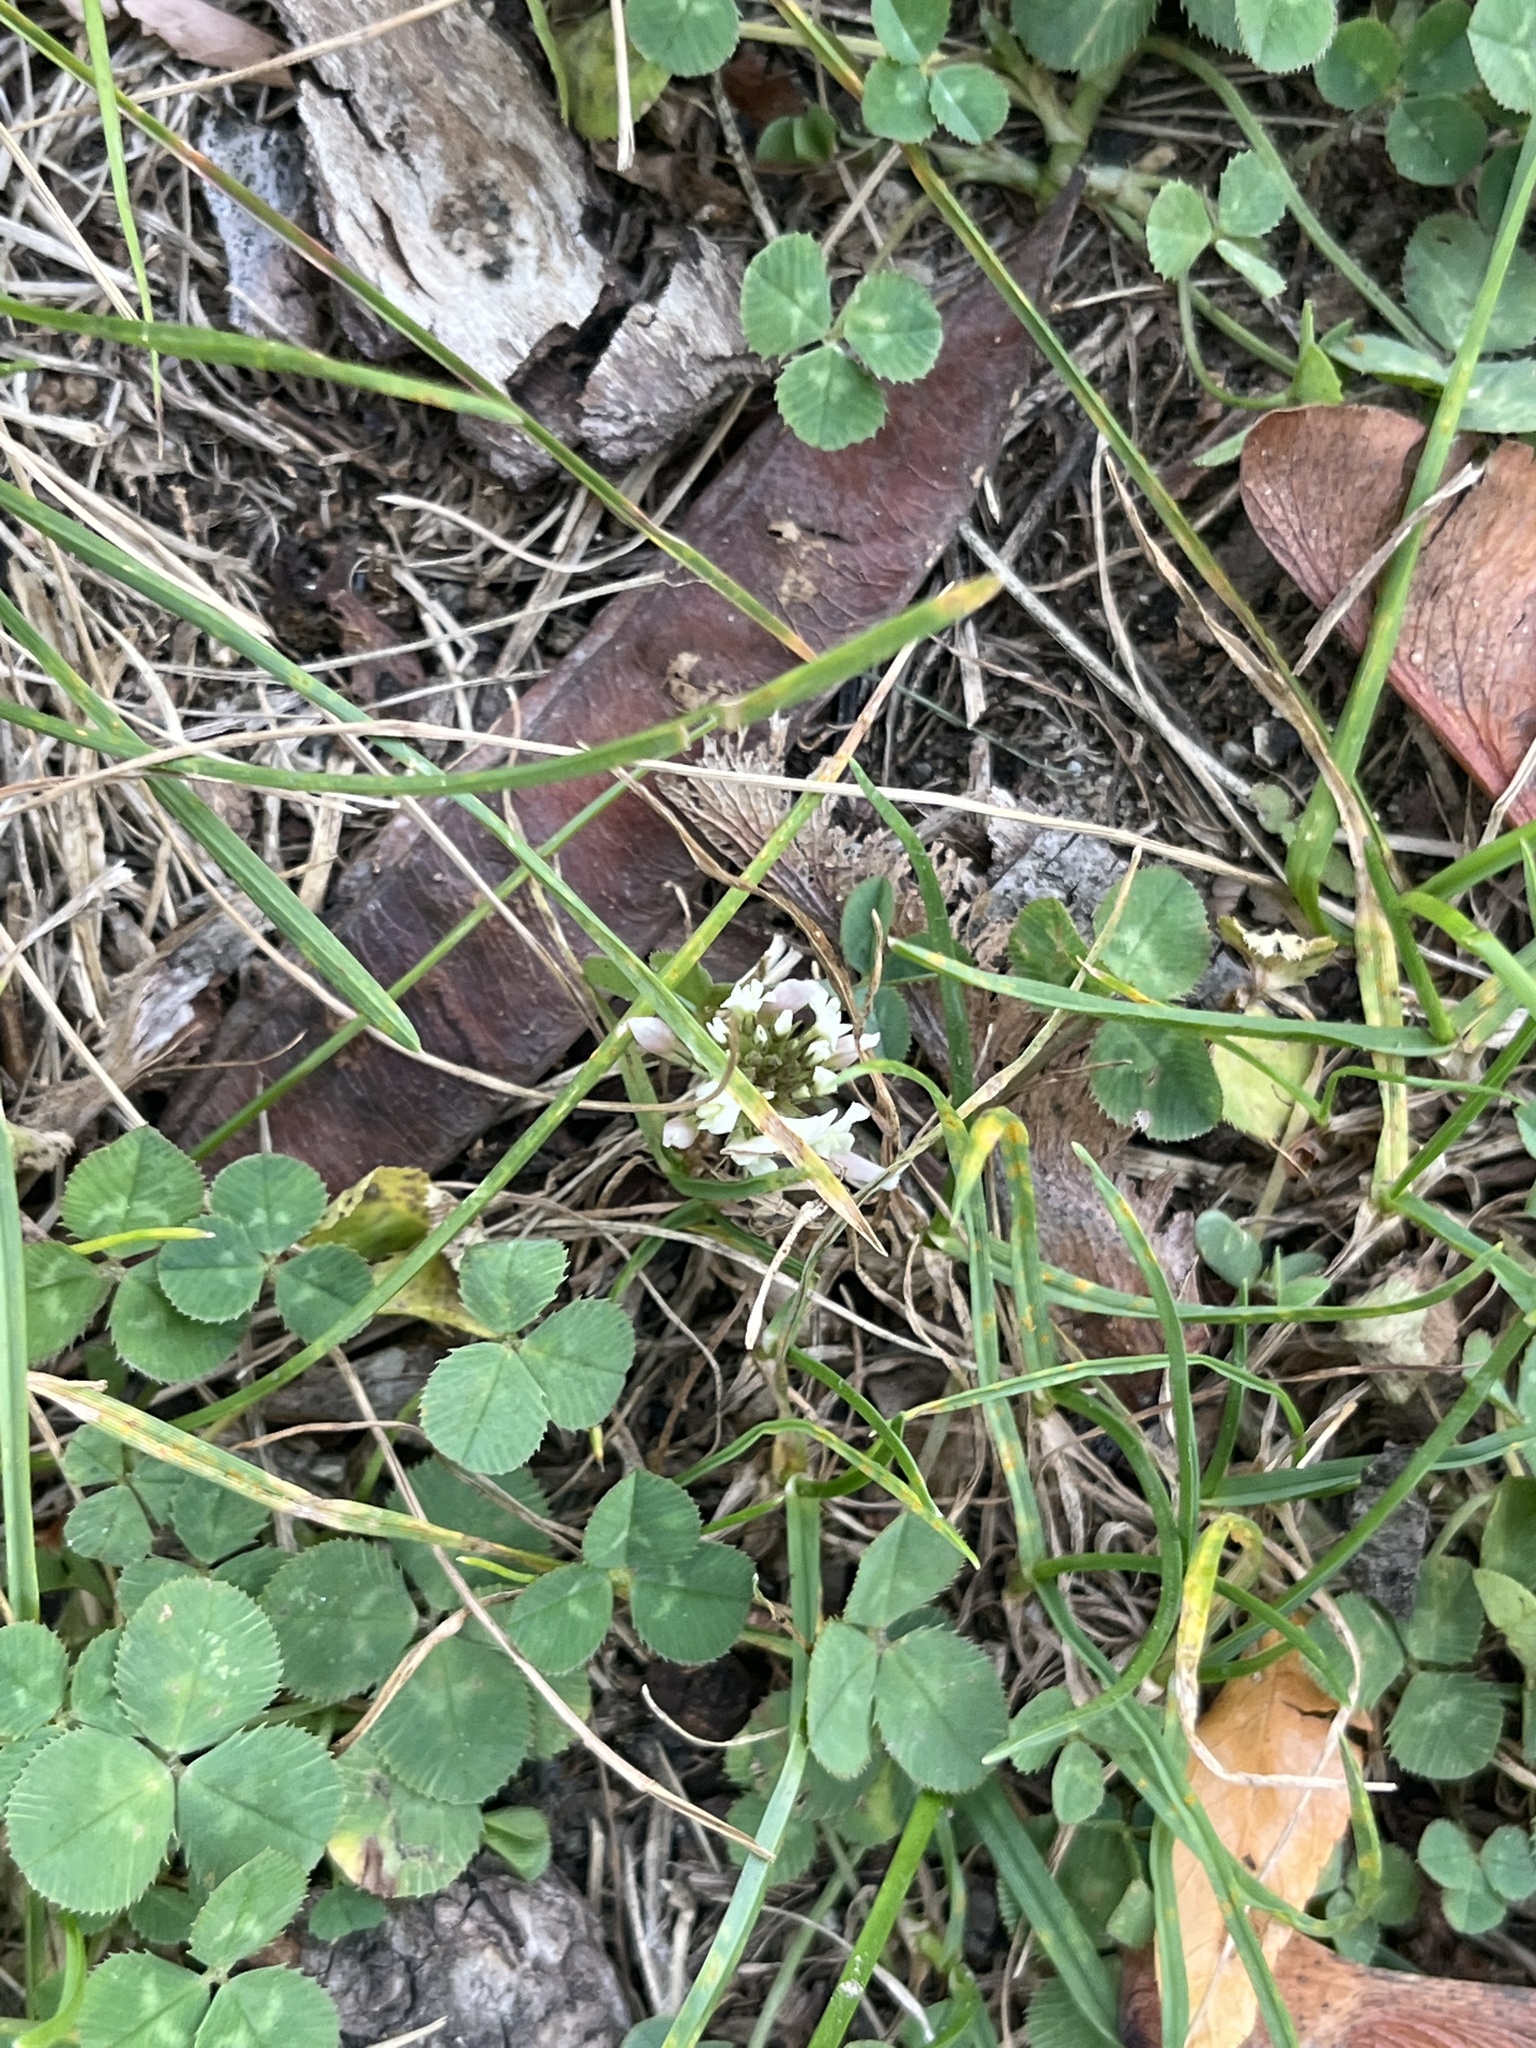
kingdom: Plantae
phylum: Tracheophyta
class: Magnoliopsida
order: Fabales
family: Fabaceae
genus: Trifolium
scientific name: Trifolium repens
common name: White clover
